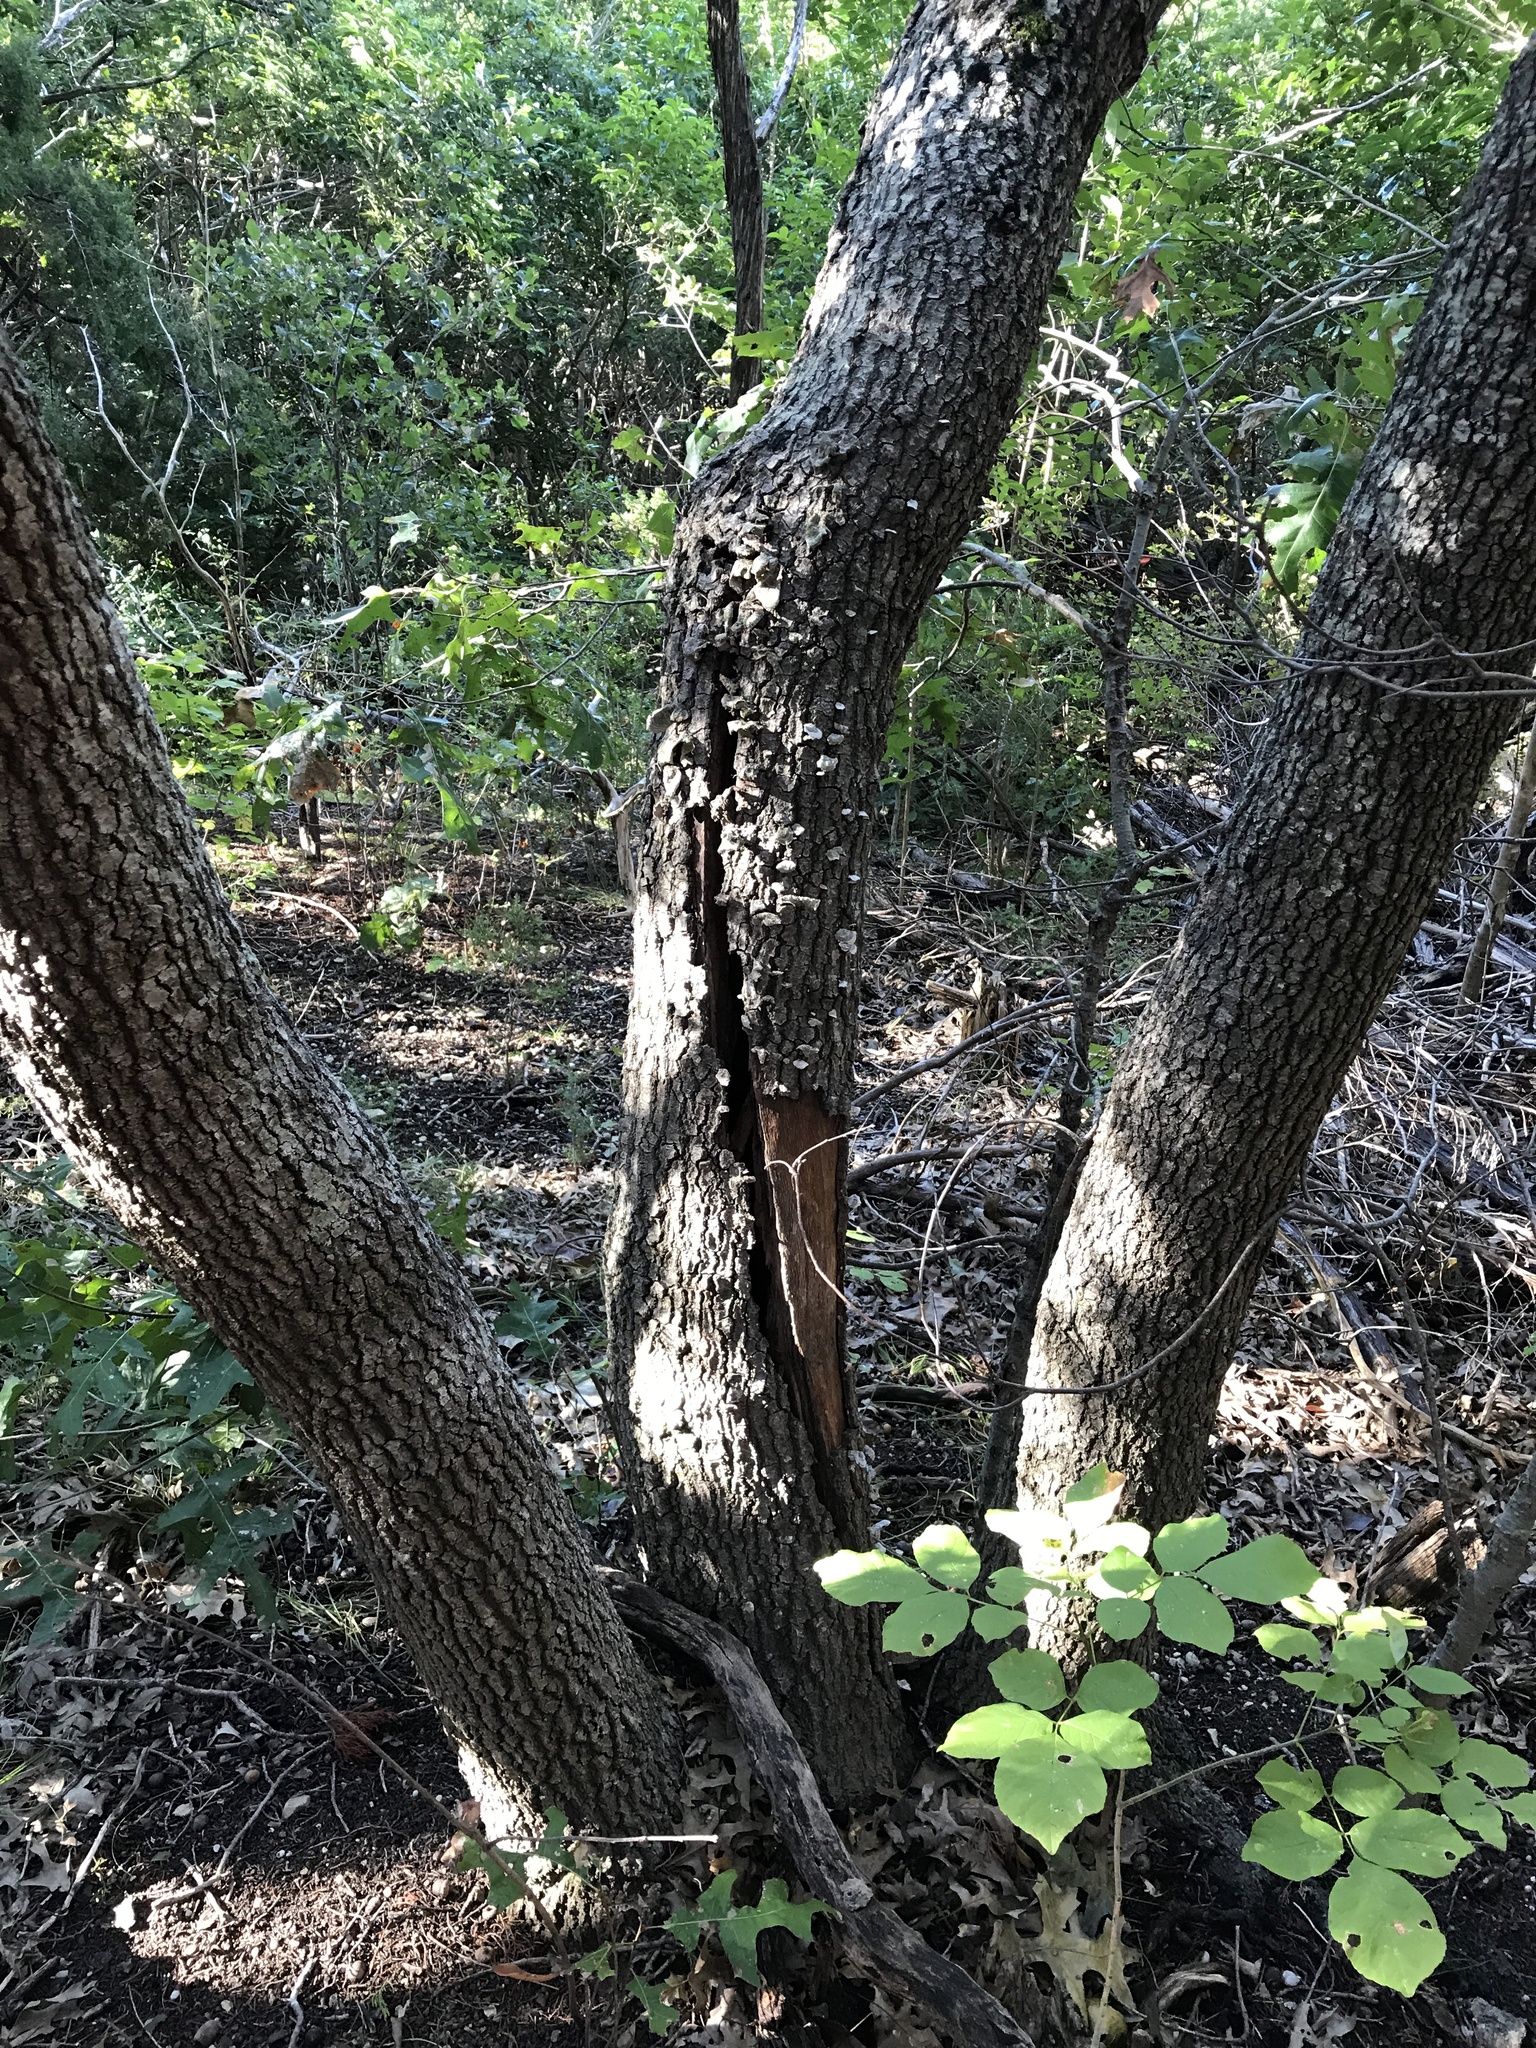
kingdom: Plantae
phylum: Tracheophyta
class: Magnoliopsida
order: Fagales
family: Fagaceae
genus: Quercus
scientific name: Quercus buckleyi
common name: Buckley oak
